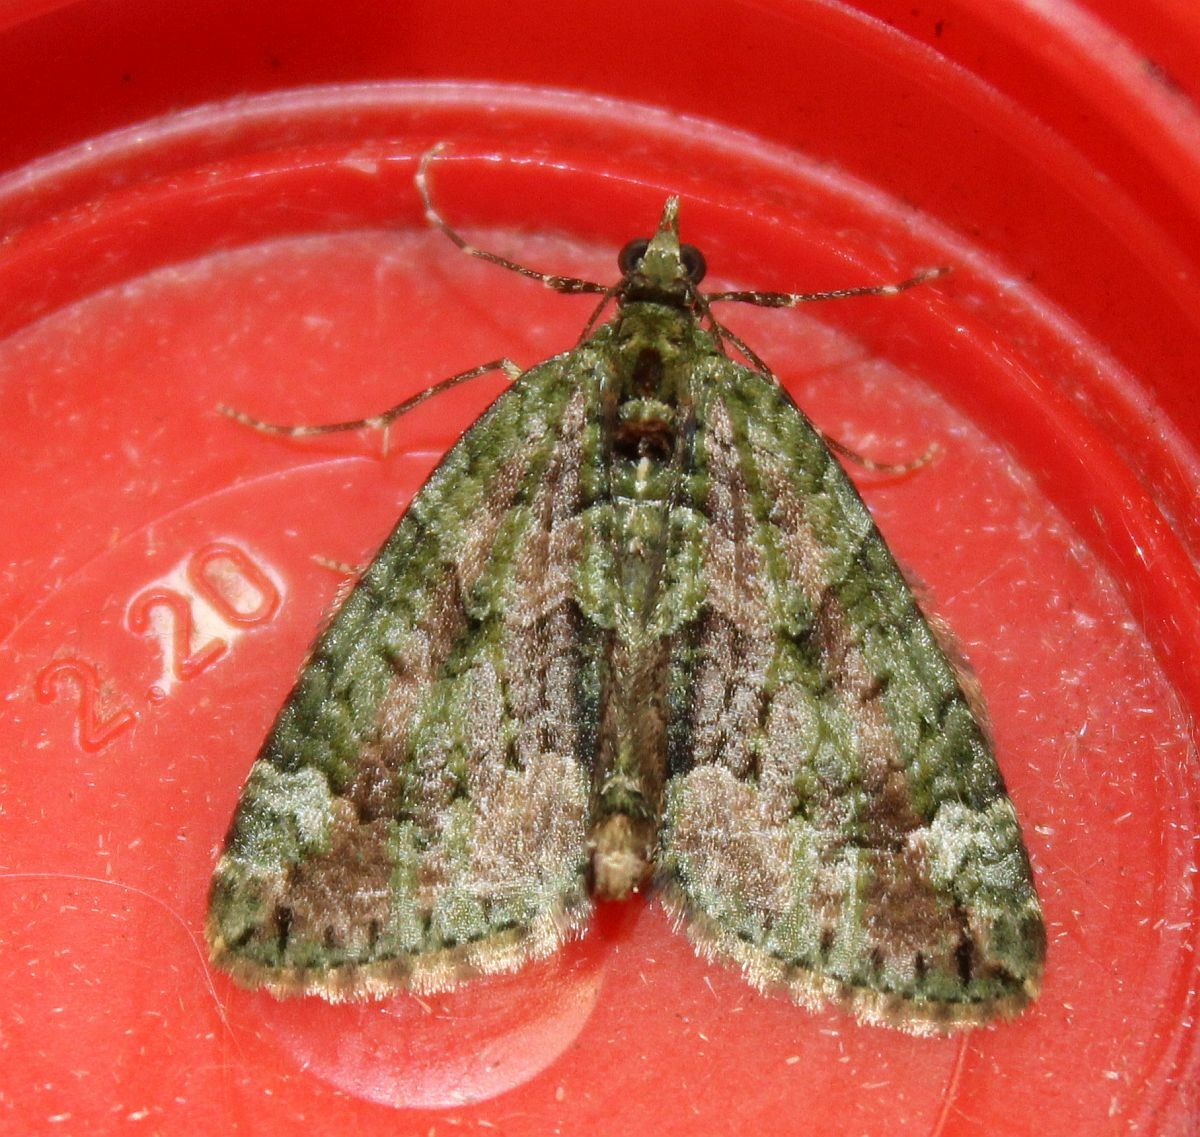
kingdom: Animalia
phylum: Arthropoda
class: Insecta
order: Lepidoptera
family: Geometridae
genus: Chloroclysta
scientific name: Chloroclysta siterata
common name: Red-green carpet
